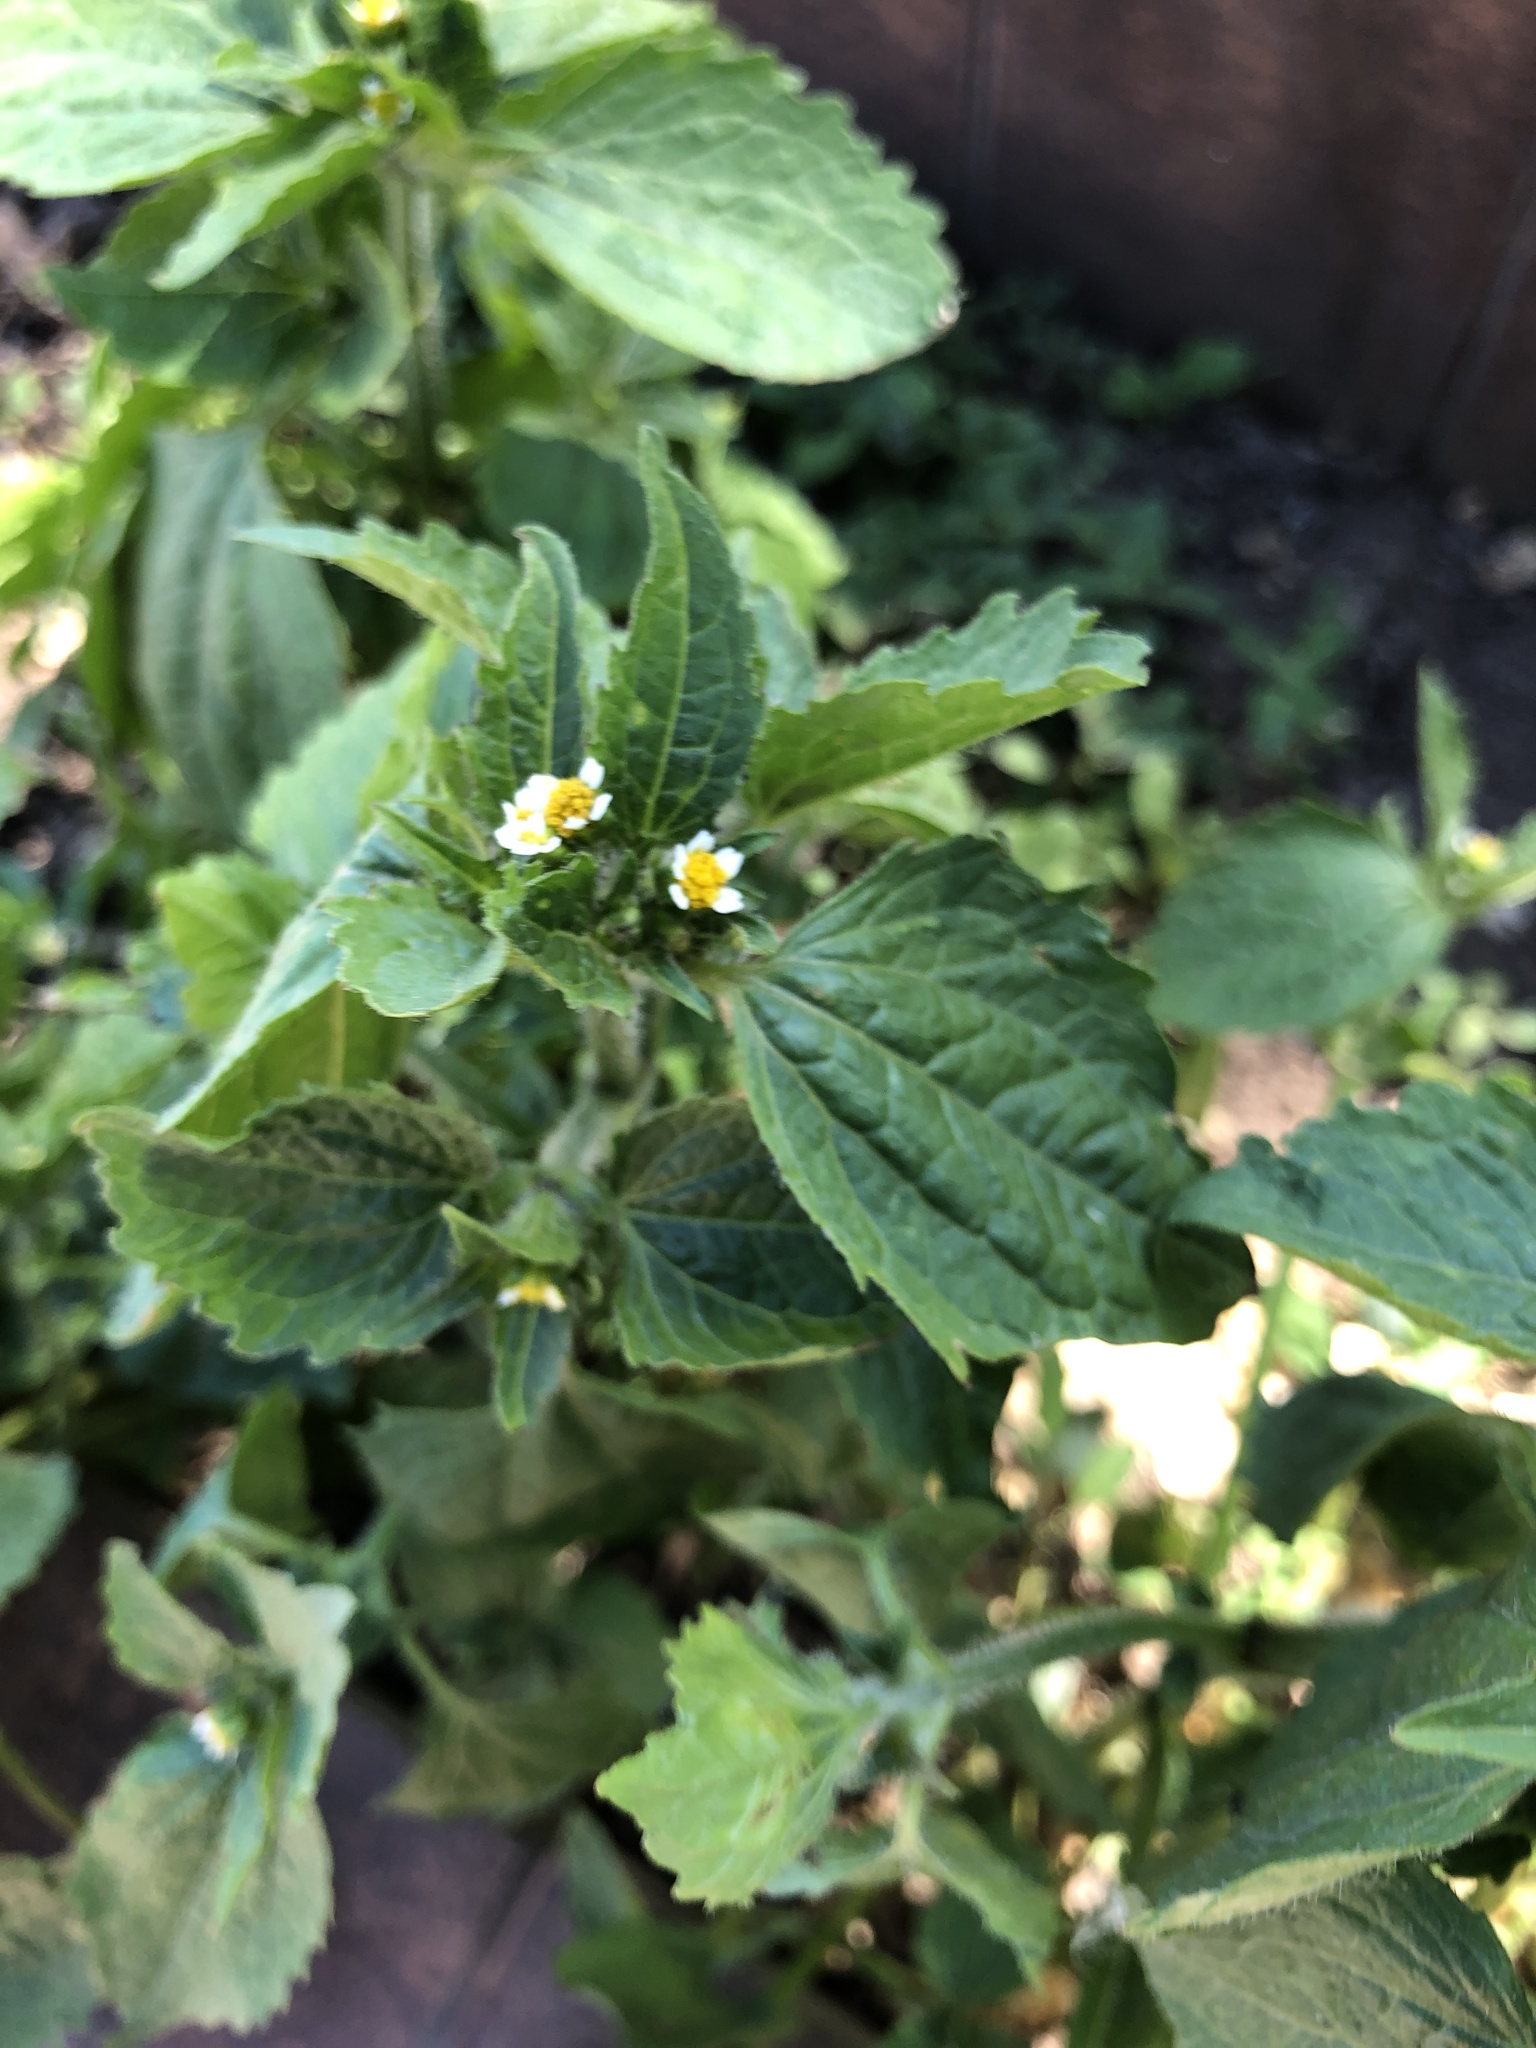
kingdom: Plantae
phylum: Tracheophyta
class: Magnoliopsida
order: Asterales
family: Asteraceae
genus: Galinsoga
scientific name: Galinsoga quadriradiata
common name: Shaggy soldier
